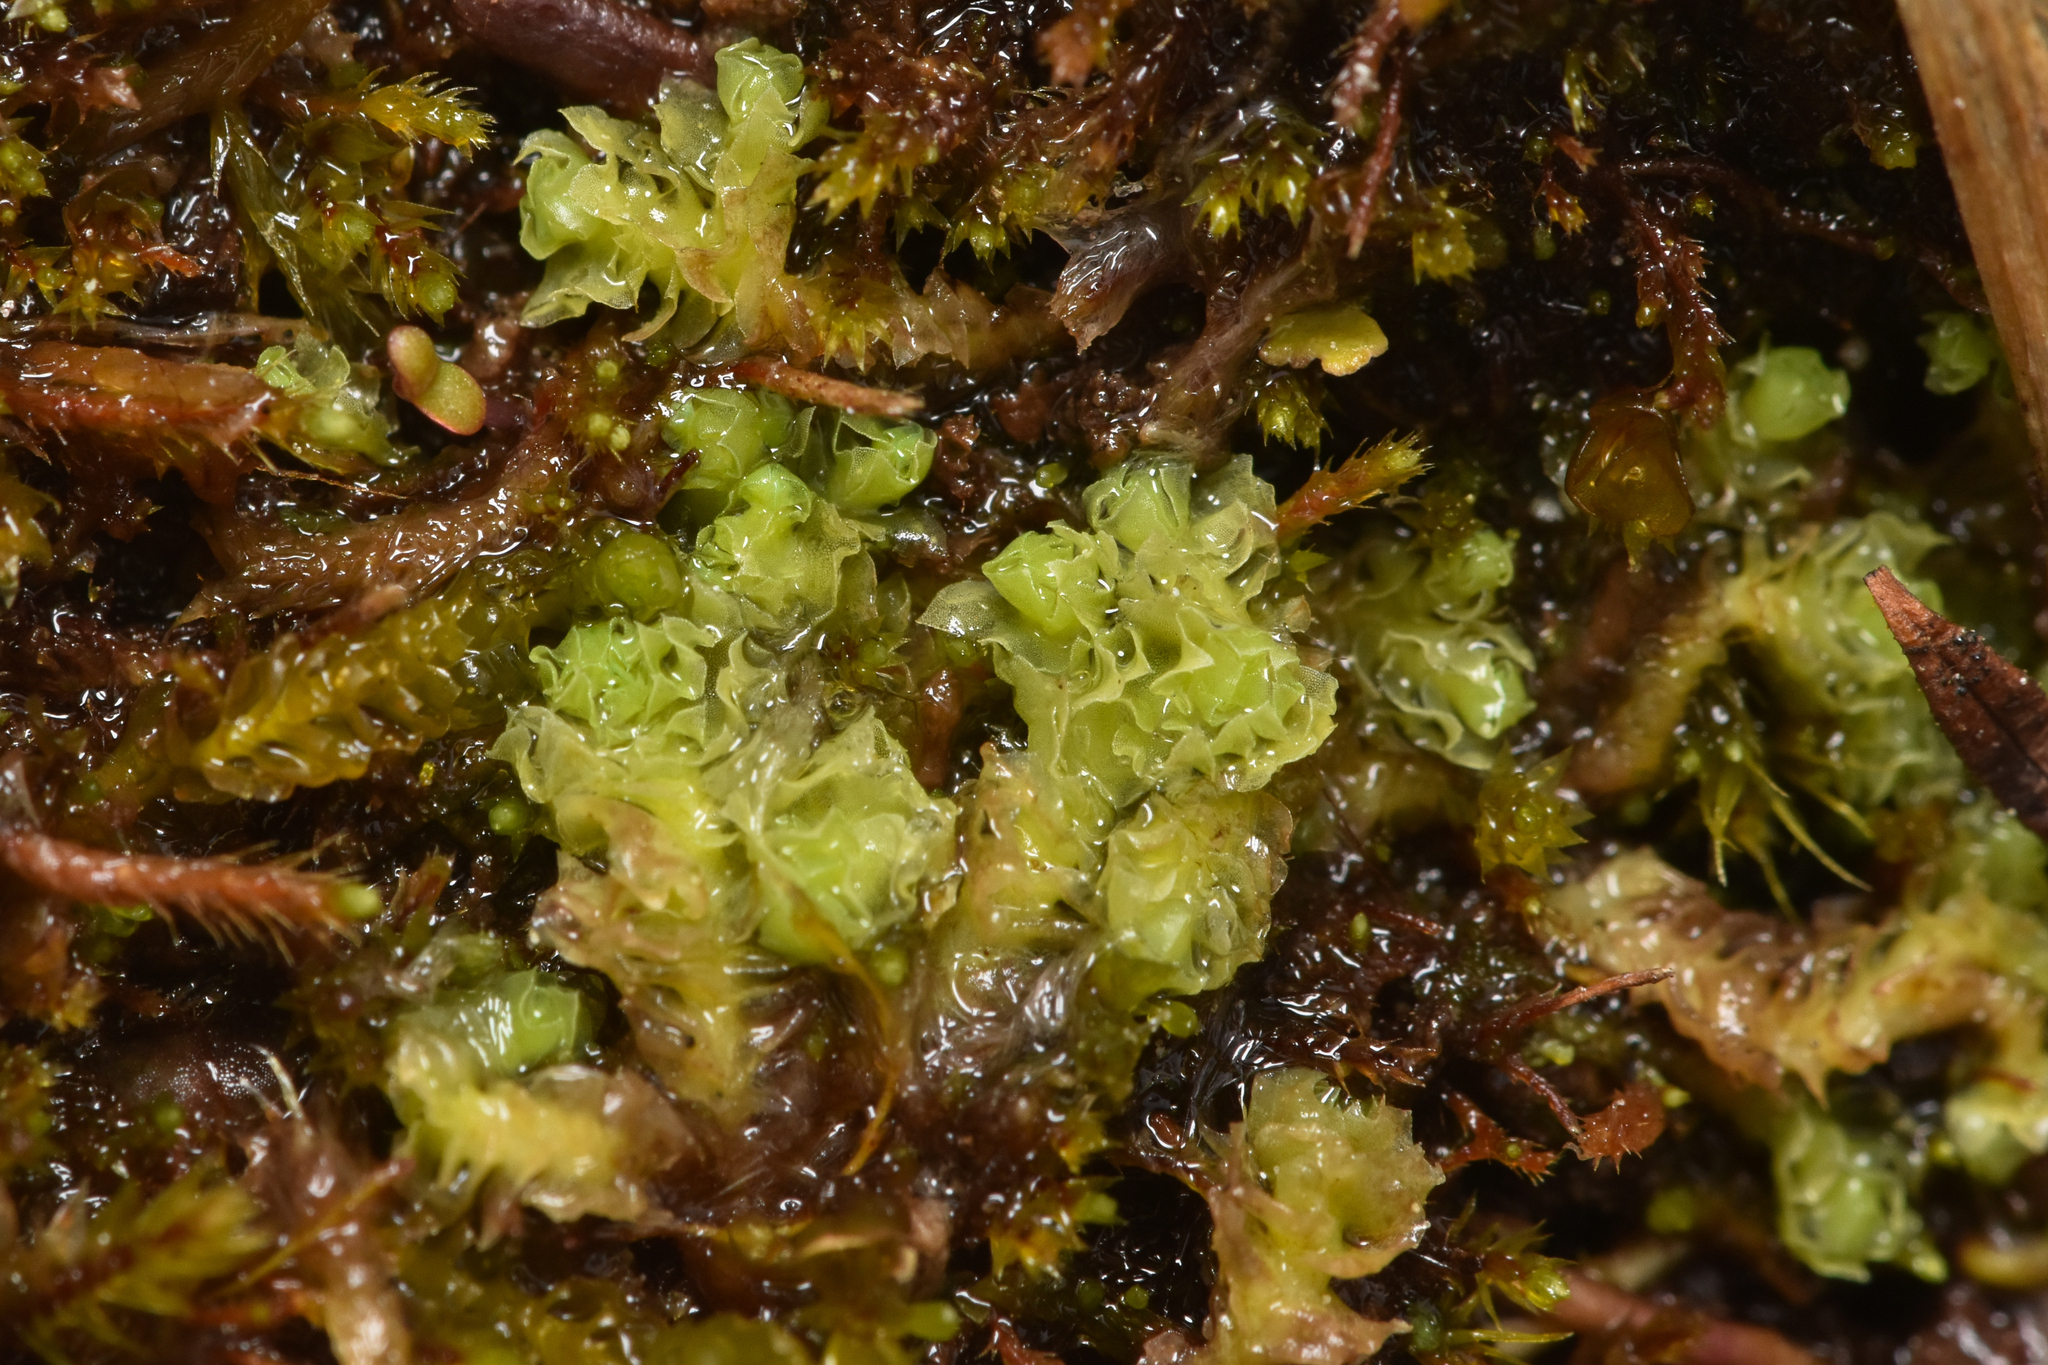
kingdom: Plantae
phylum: Marchantiophyta
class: Jungermanniopsida
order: Jungermanniales
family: Scapaniaceae
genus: Schistochilopsis
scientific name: Schistochilopsis incisa
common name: Jagged notchwort
